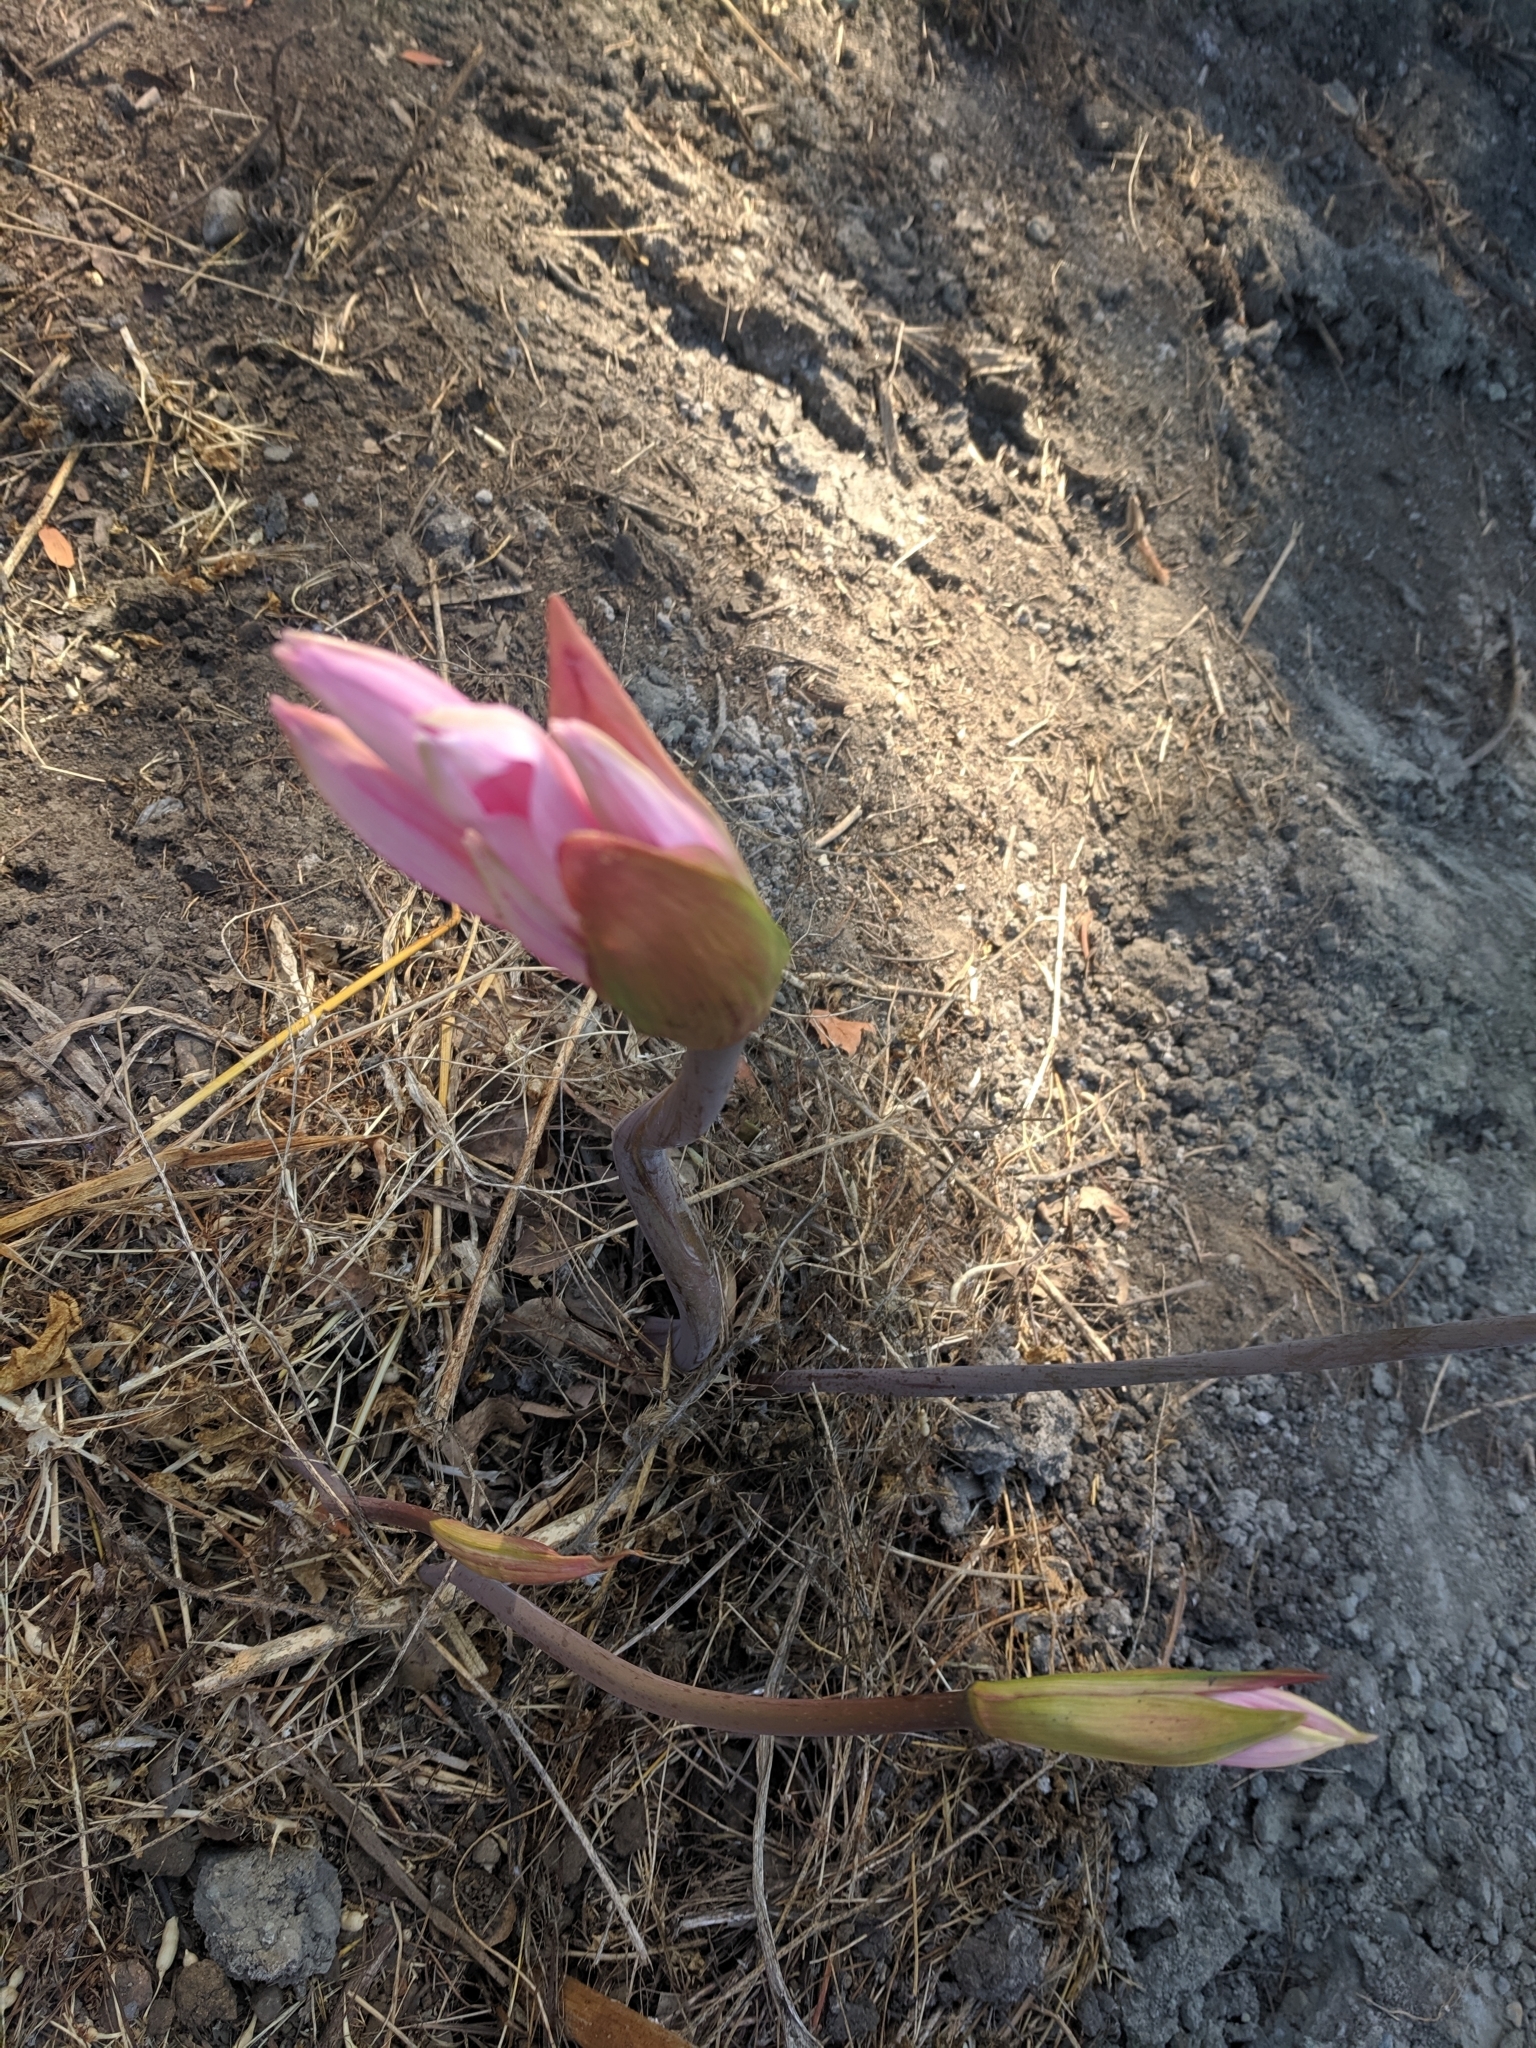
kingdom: Plantae
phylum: Tracheophyta
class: Liliopsida
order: Asparagales
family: Amaryllidaceae
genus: Amaryllis
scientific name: Amaryllis belladonna
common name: Jersey lily
